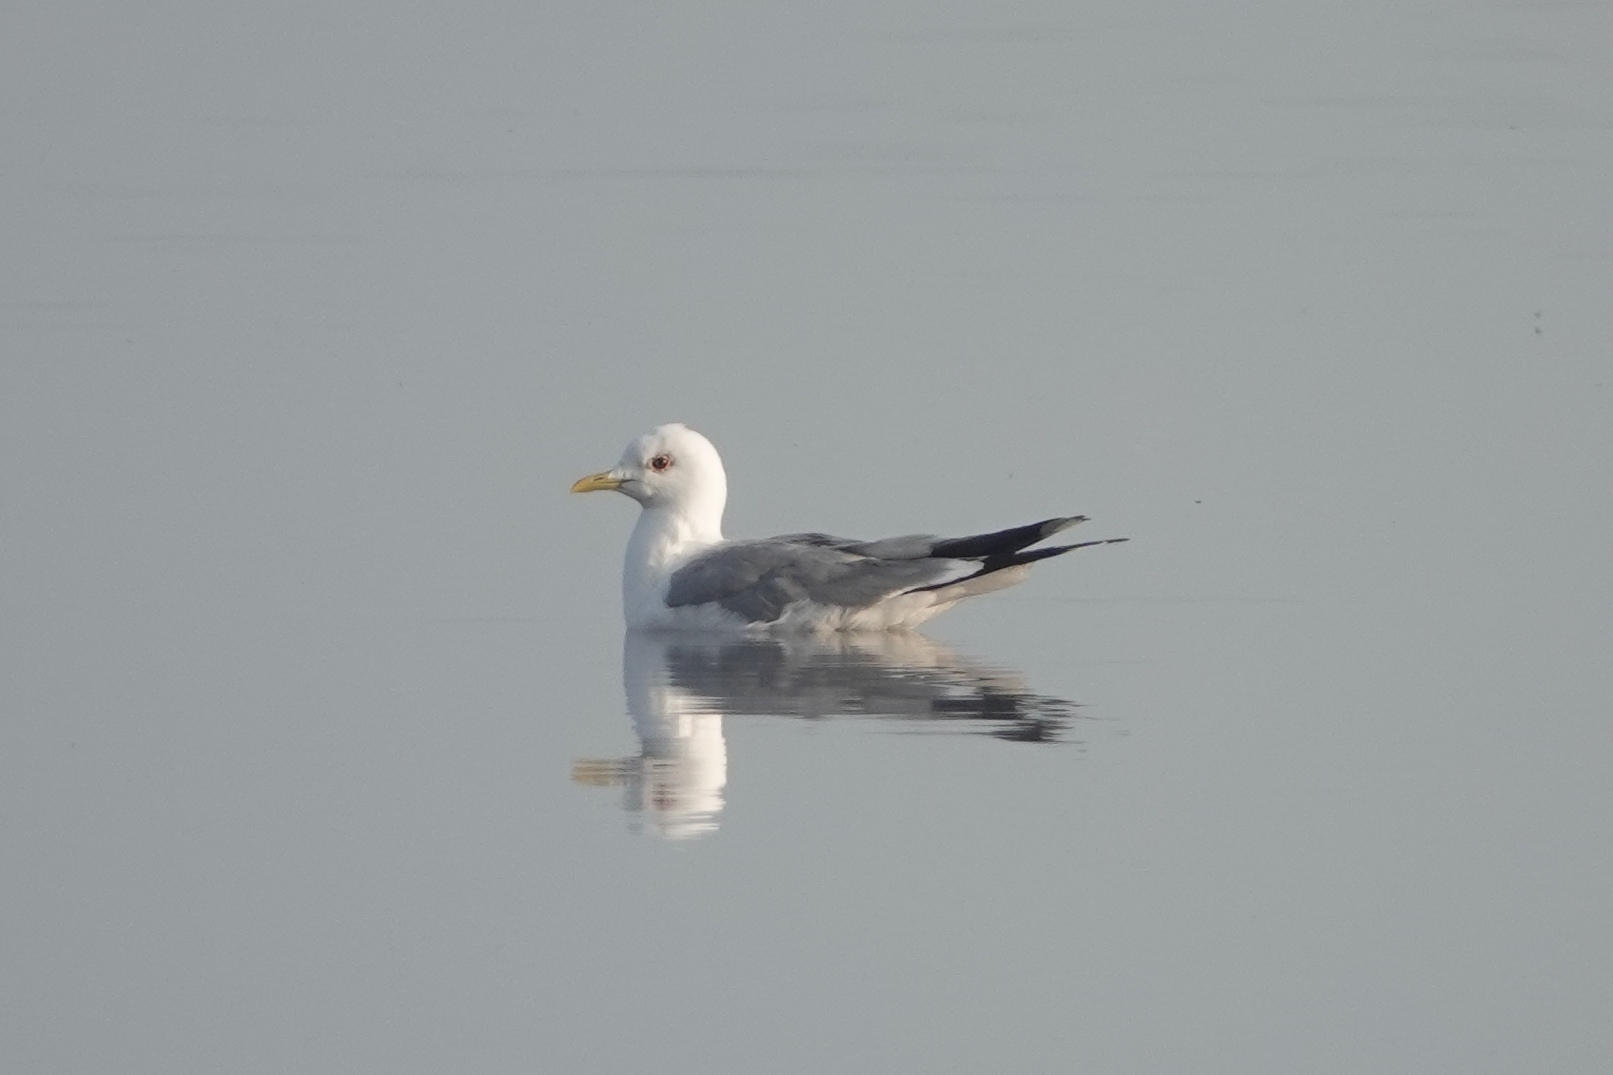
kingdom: Animalia
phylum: Chordata
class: Aves
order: Charadriiformes
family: Laridae
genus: Larus
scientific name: Larus canus
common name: Mew gull
